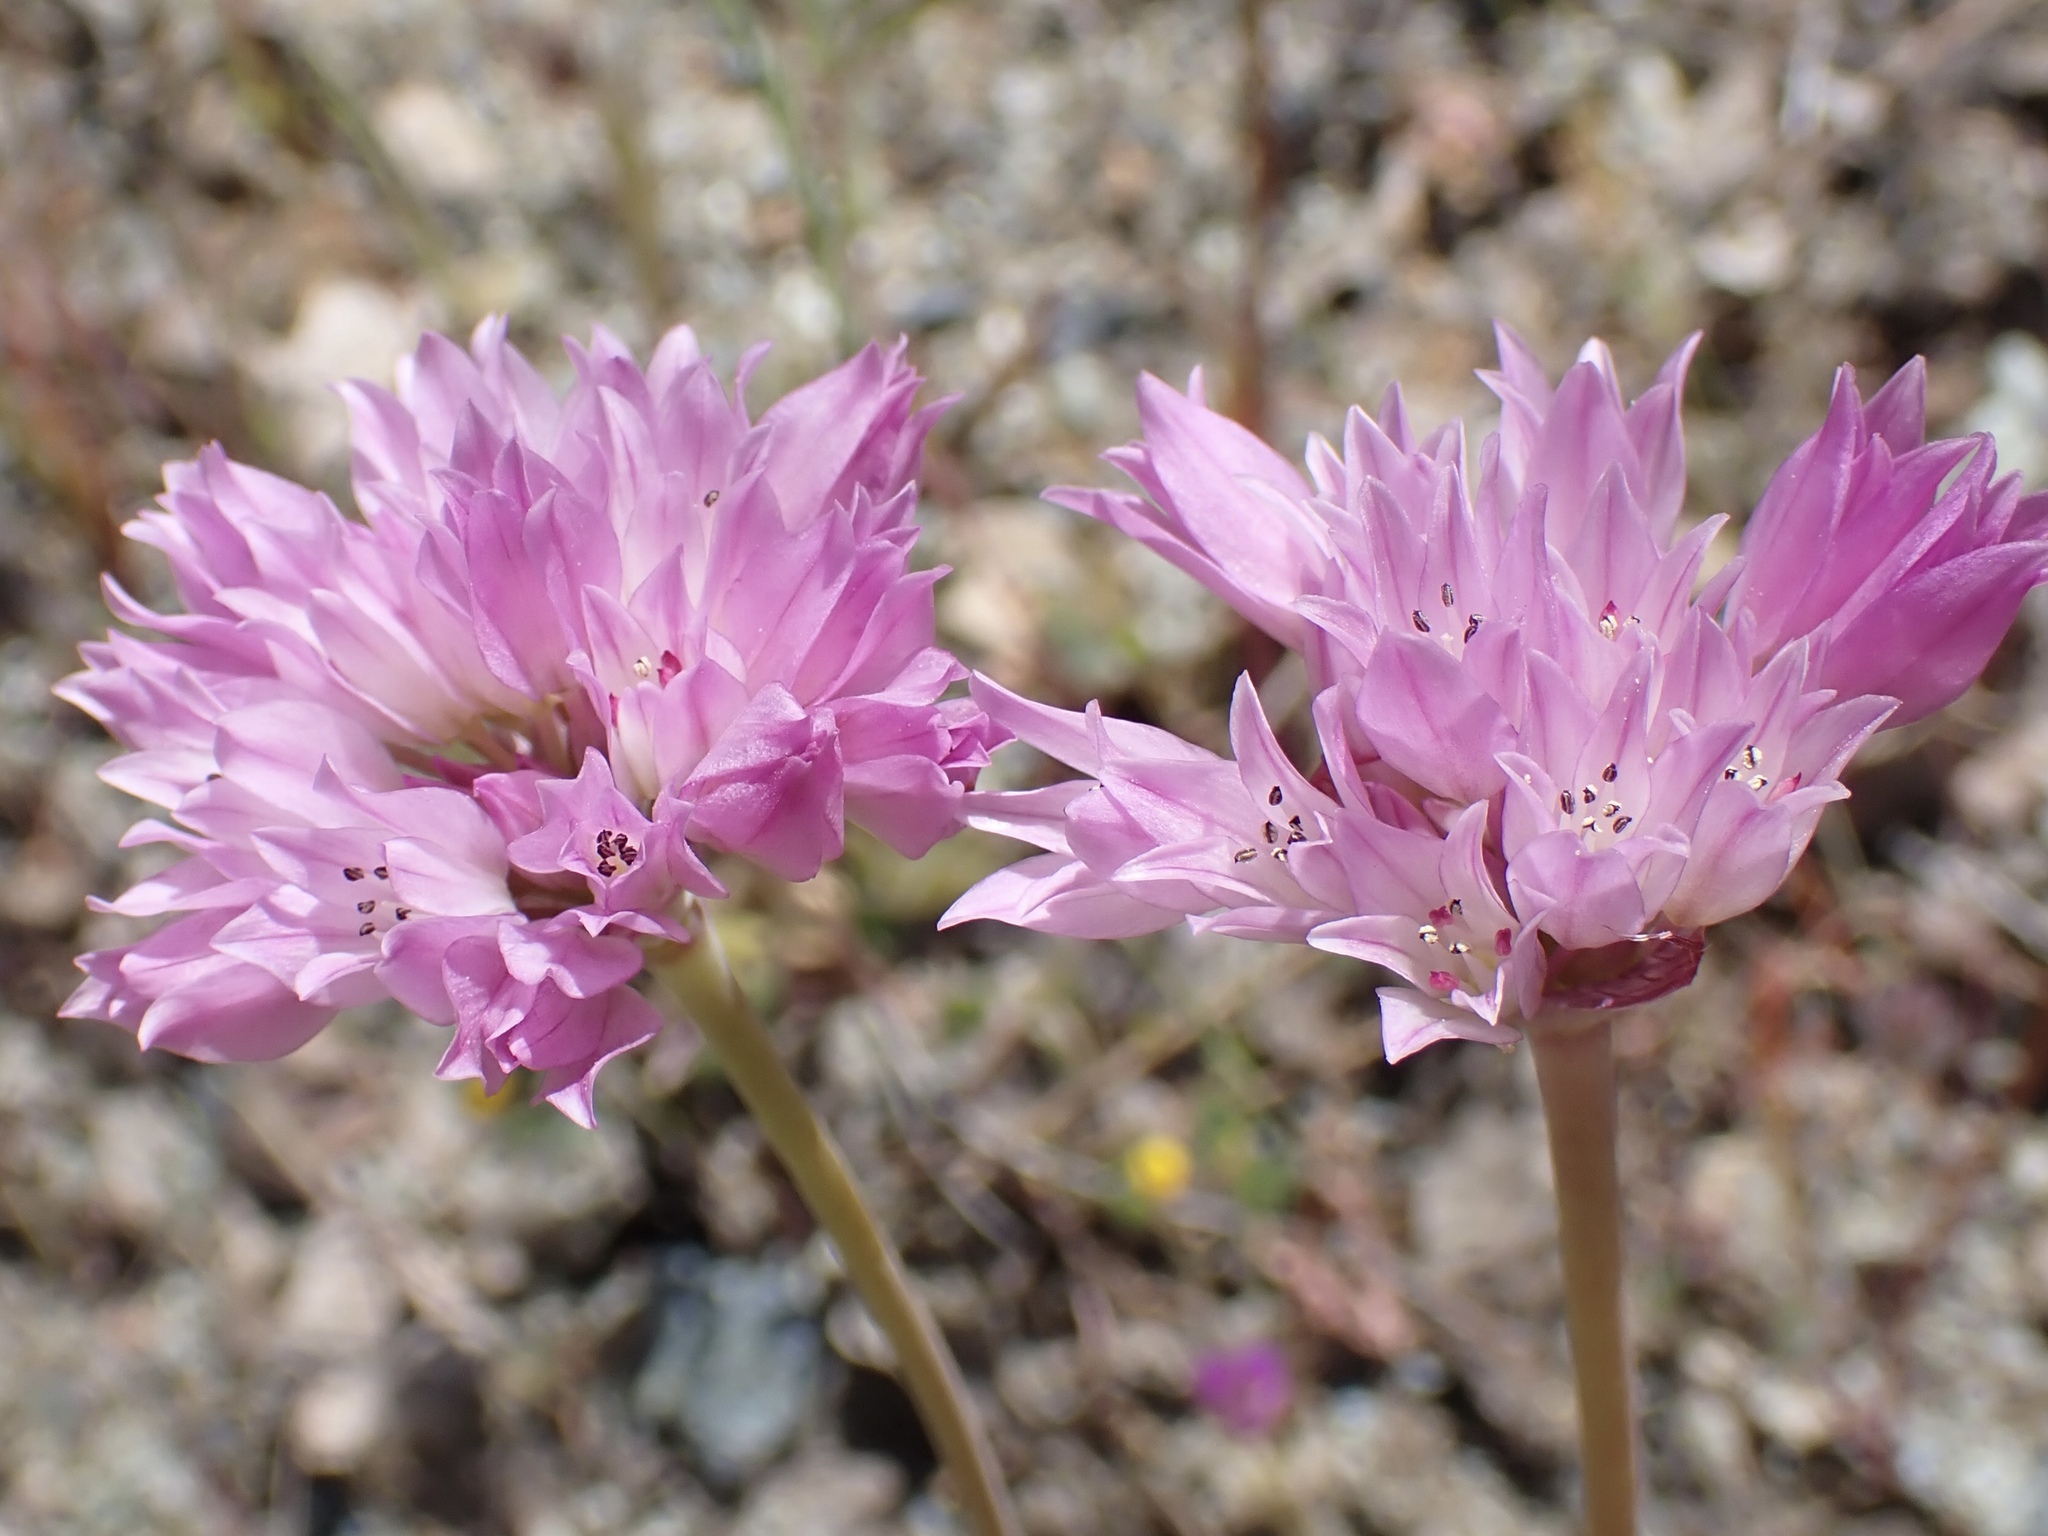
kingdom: Plantae
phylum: Tracheophyta
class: Liliopsida
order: Asparagales
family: Amaryllidaceae
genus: Allium
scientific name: Allium serra
